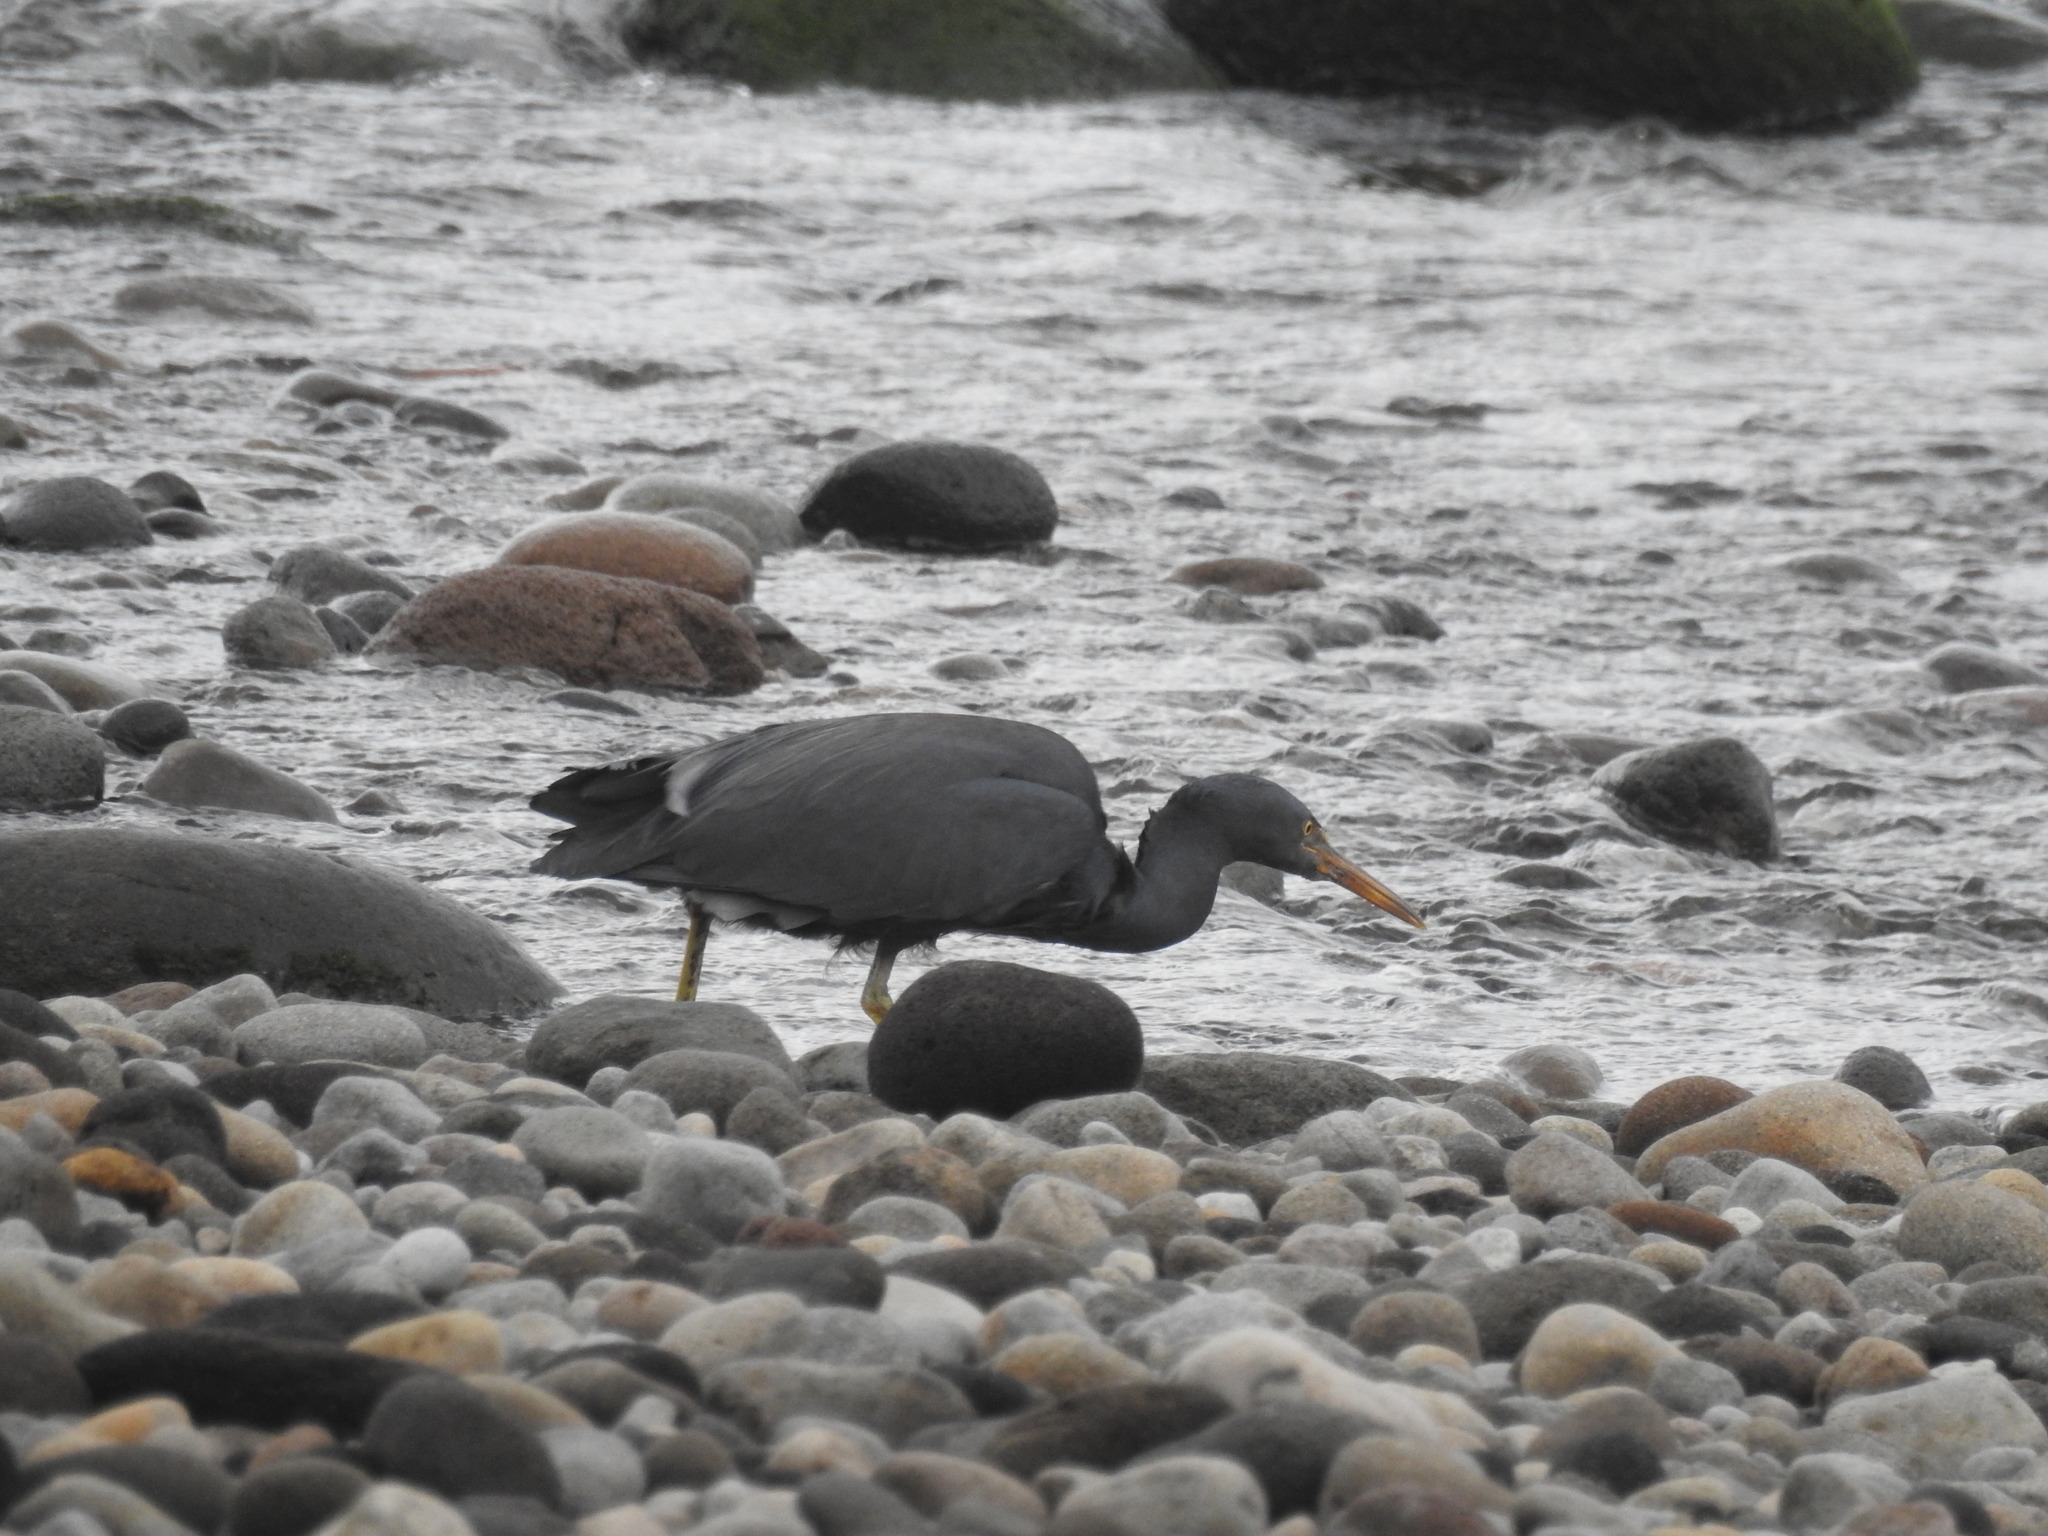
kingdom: Animalia
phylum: Chordata
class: Aves
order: Pelecaniformes
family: Ardeidae
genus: Egretta
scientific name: Egretta sacra
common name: Pacific reef heron
